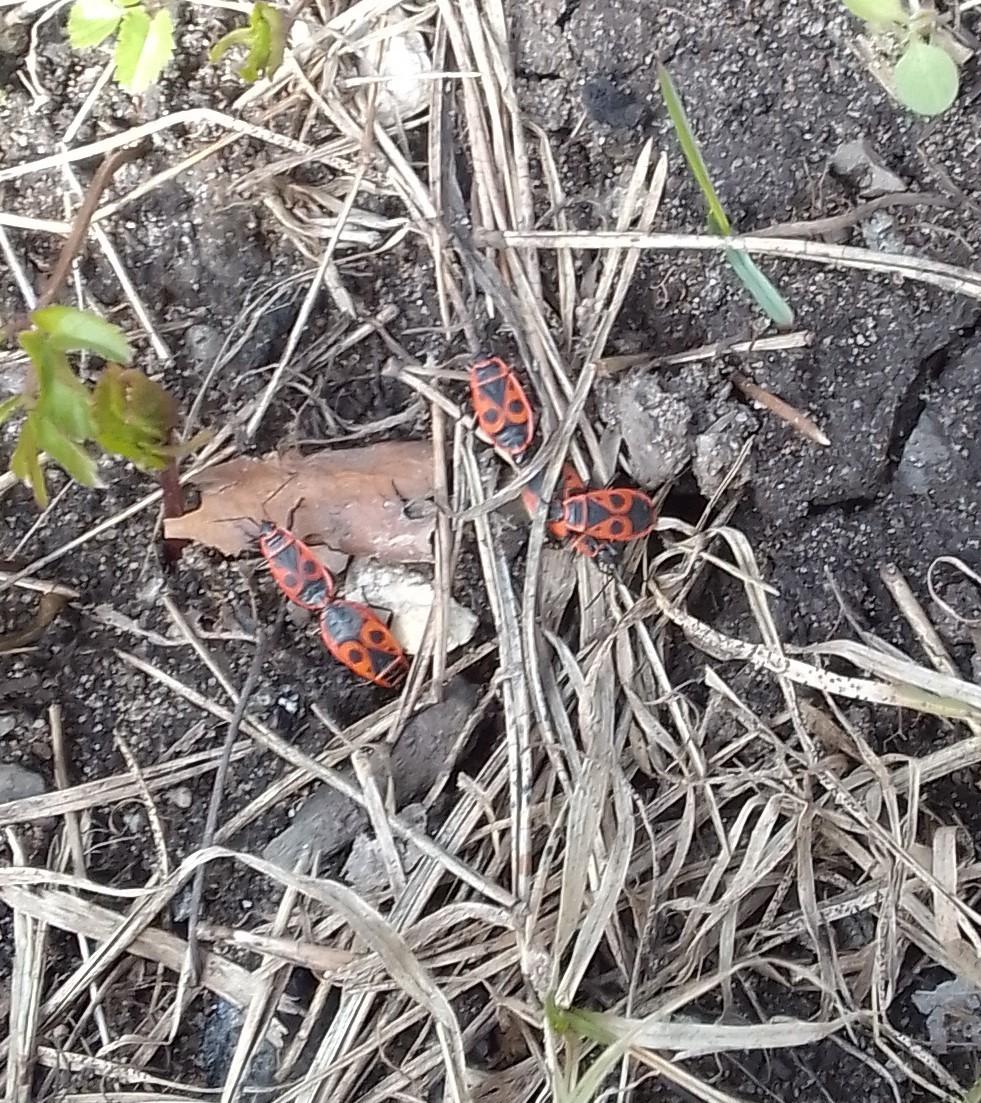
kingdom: Animalia
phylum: Arthropoda
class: Insecta
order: Hemiptera
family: Pyrrhocoridae
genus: Pyrrhocoris
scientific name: Pyrrhocoris apterus
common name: Firebug
